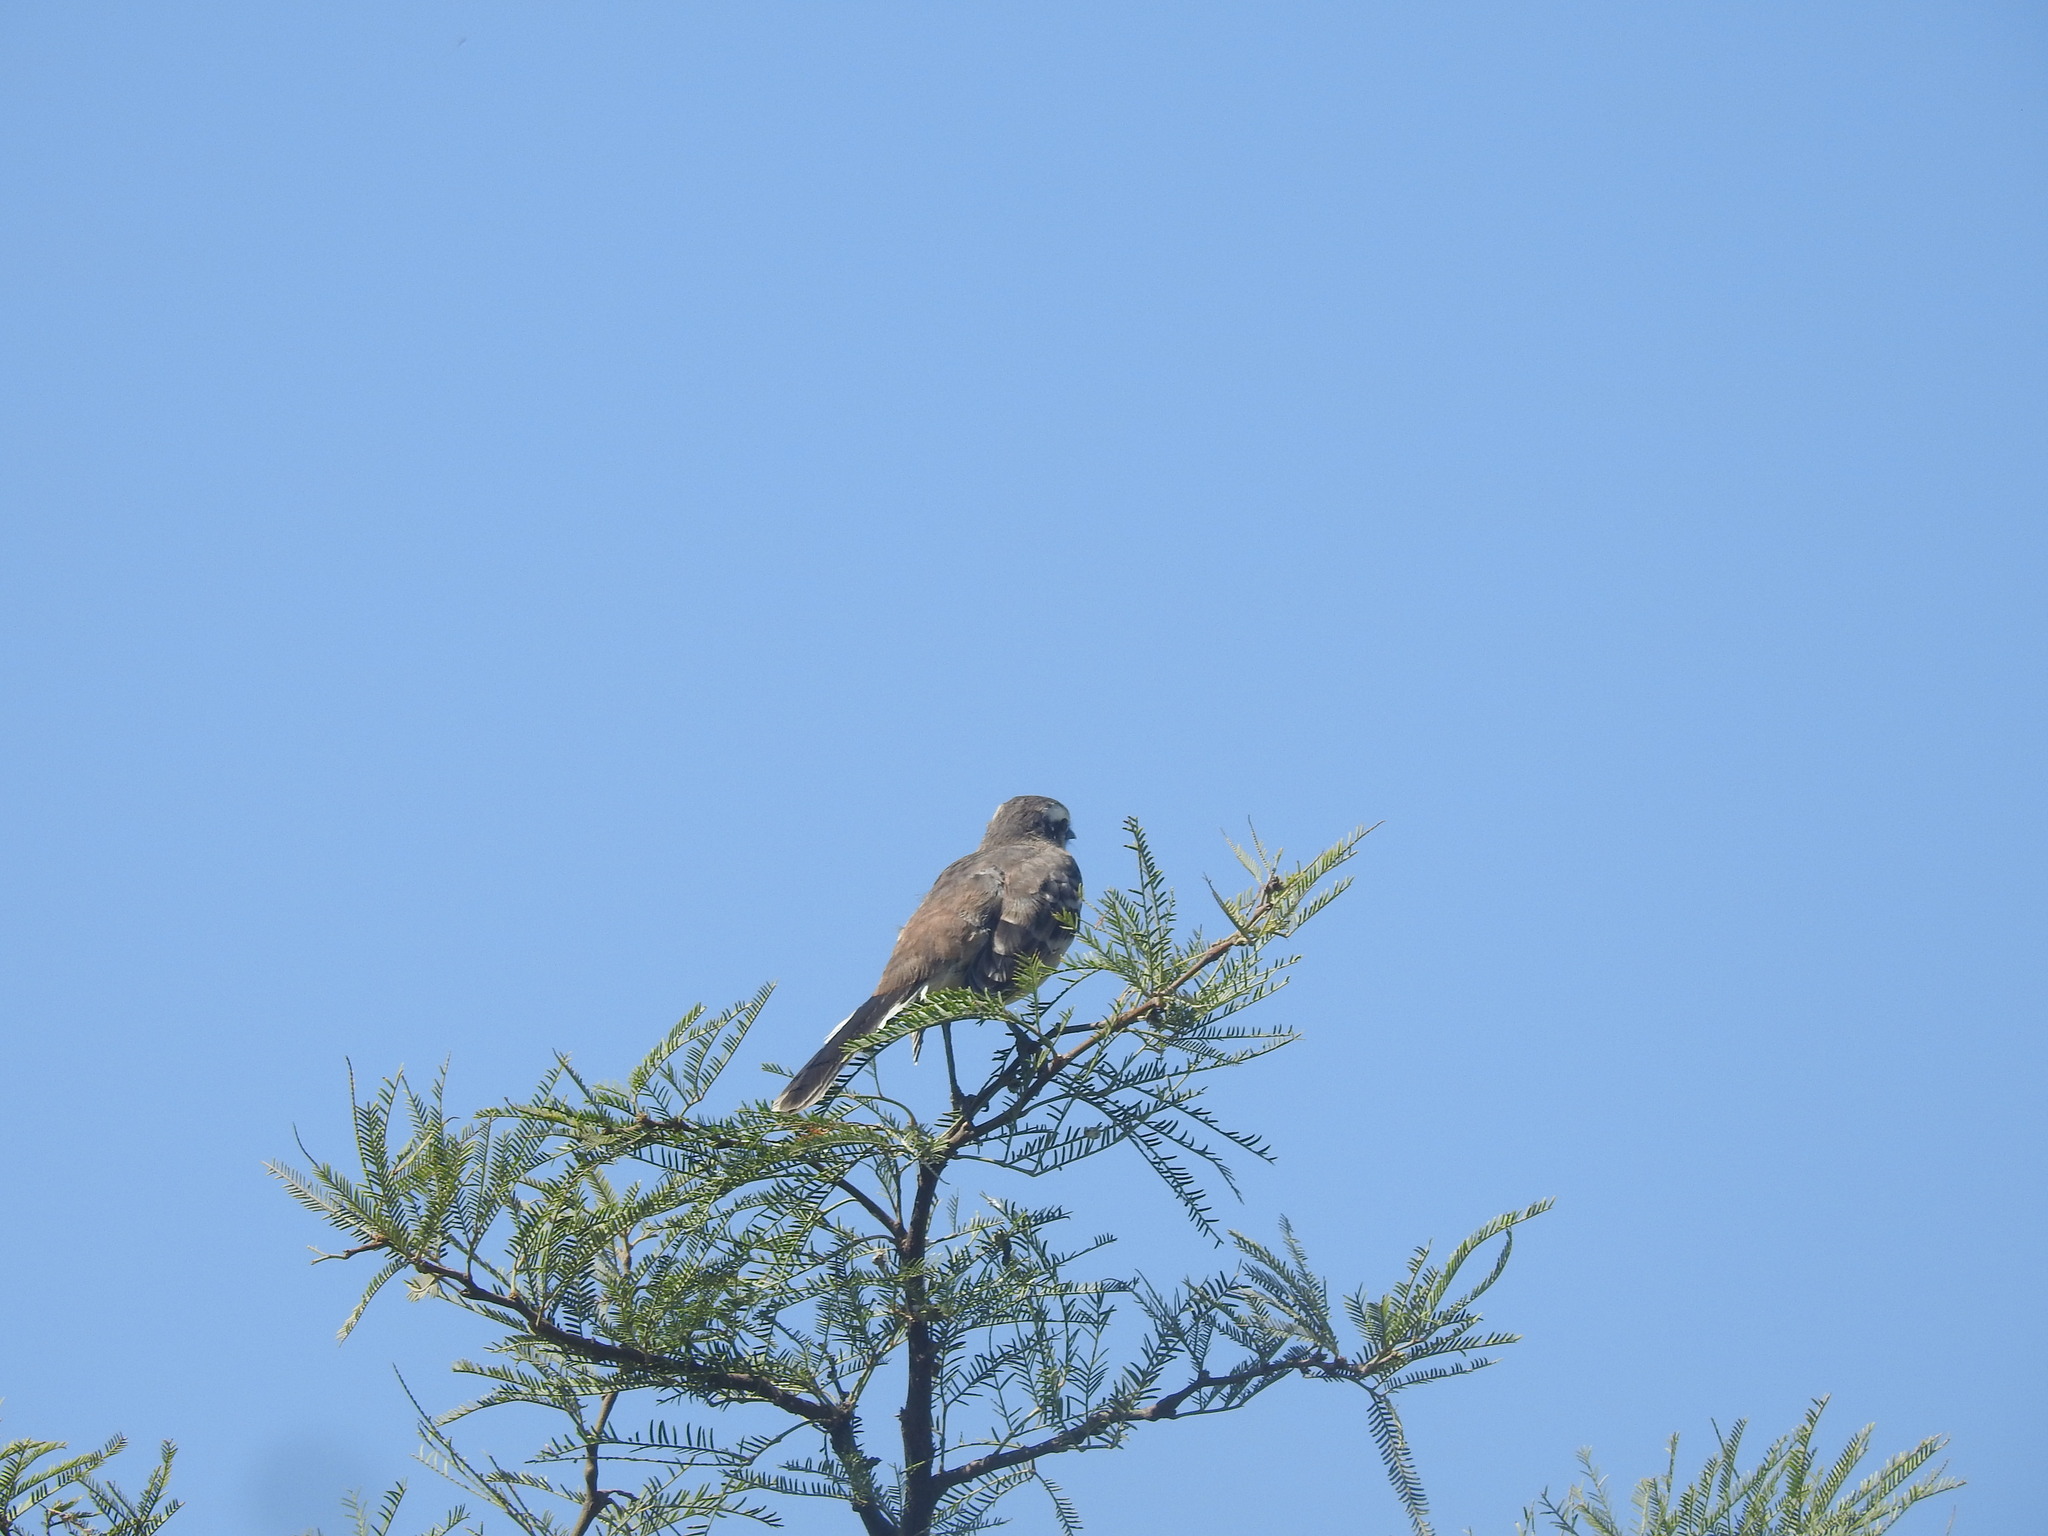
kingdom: Animalia
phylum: Chordata
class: Aves
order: Passeriformes
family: Mimidae
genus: Mimus
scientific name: Mimus saturninus
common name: Chalk-browed mockingbird
